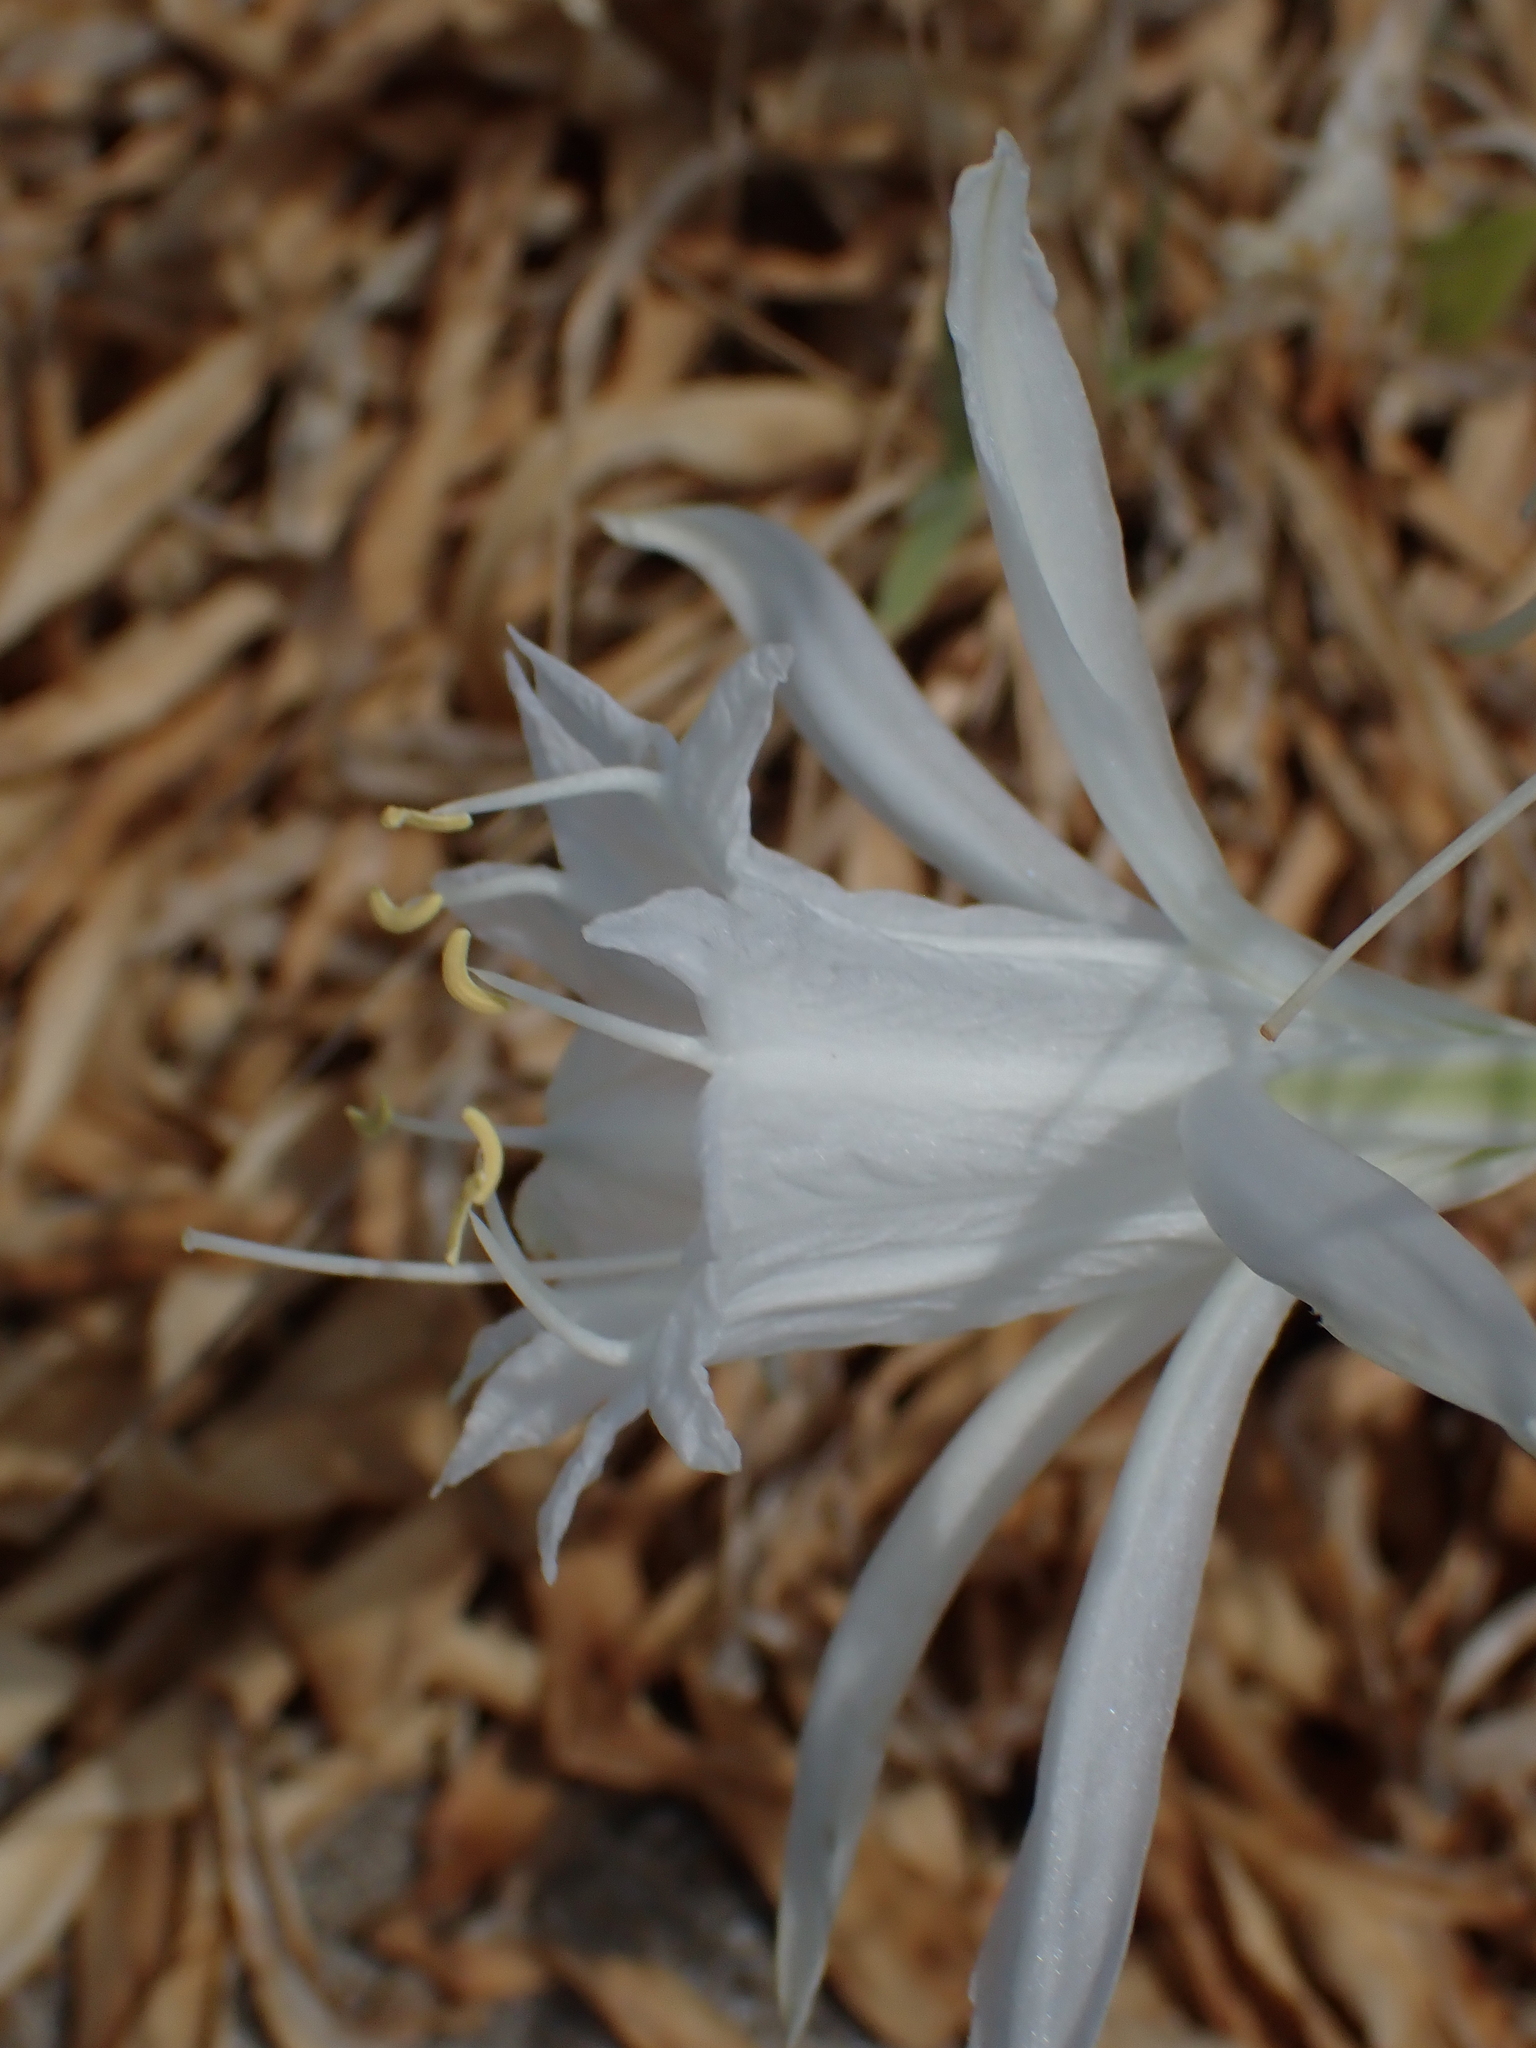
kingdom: Plantae
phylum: Tracheophyta
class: Liliopsida
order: Asparagales
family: Amaryllidaceae
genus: Pancratium
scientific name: Pancratium maritimum
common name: Sea-daffodil
